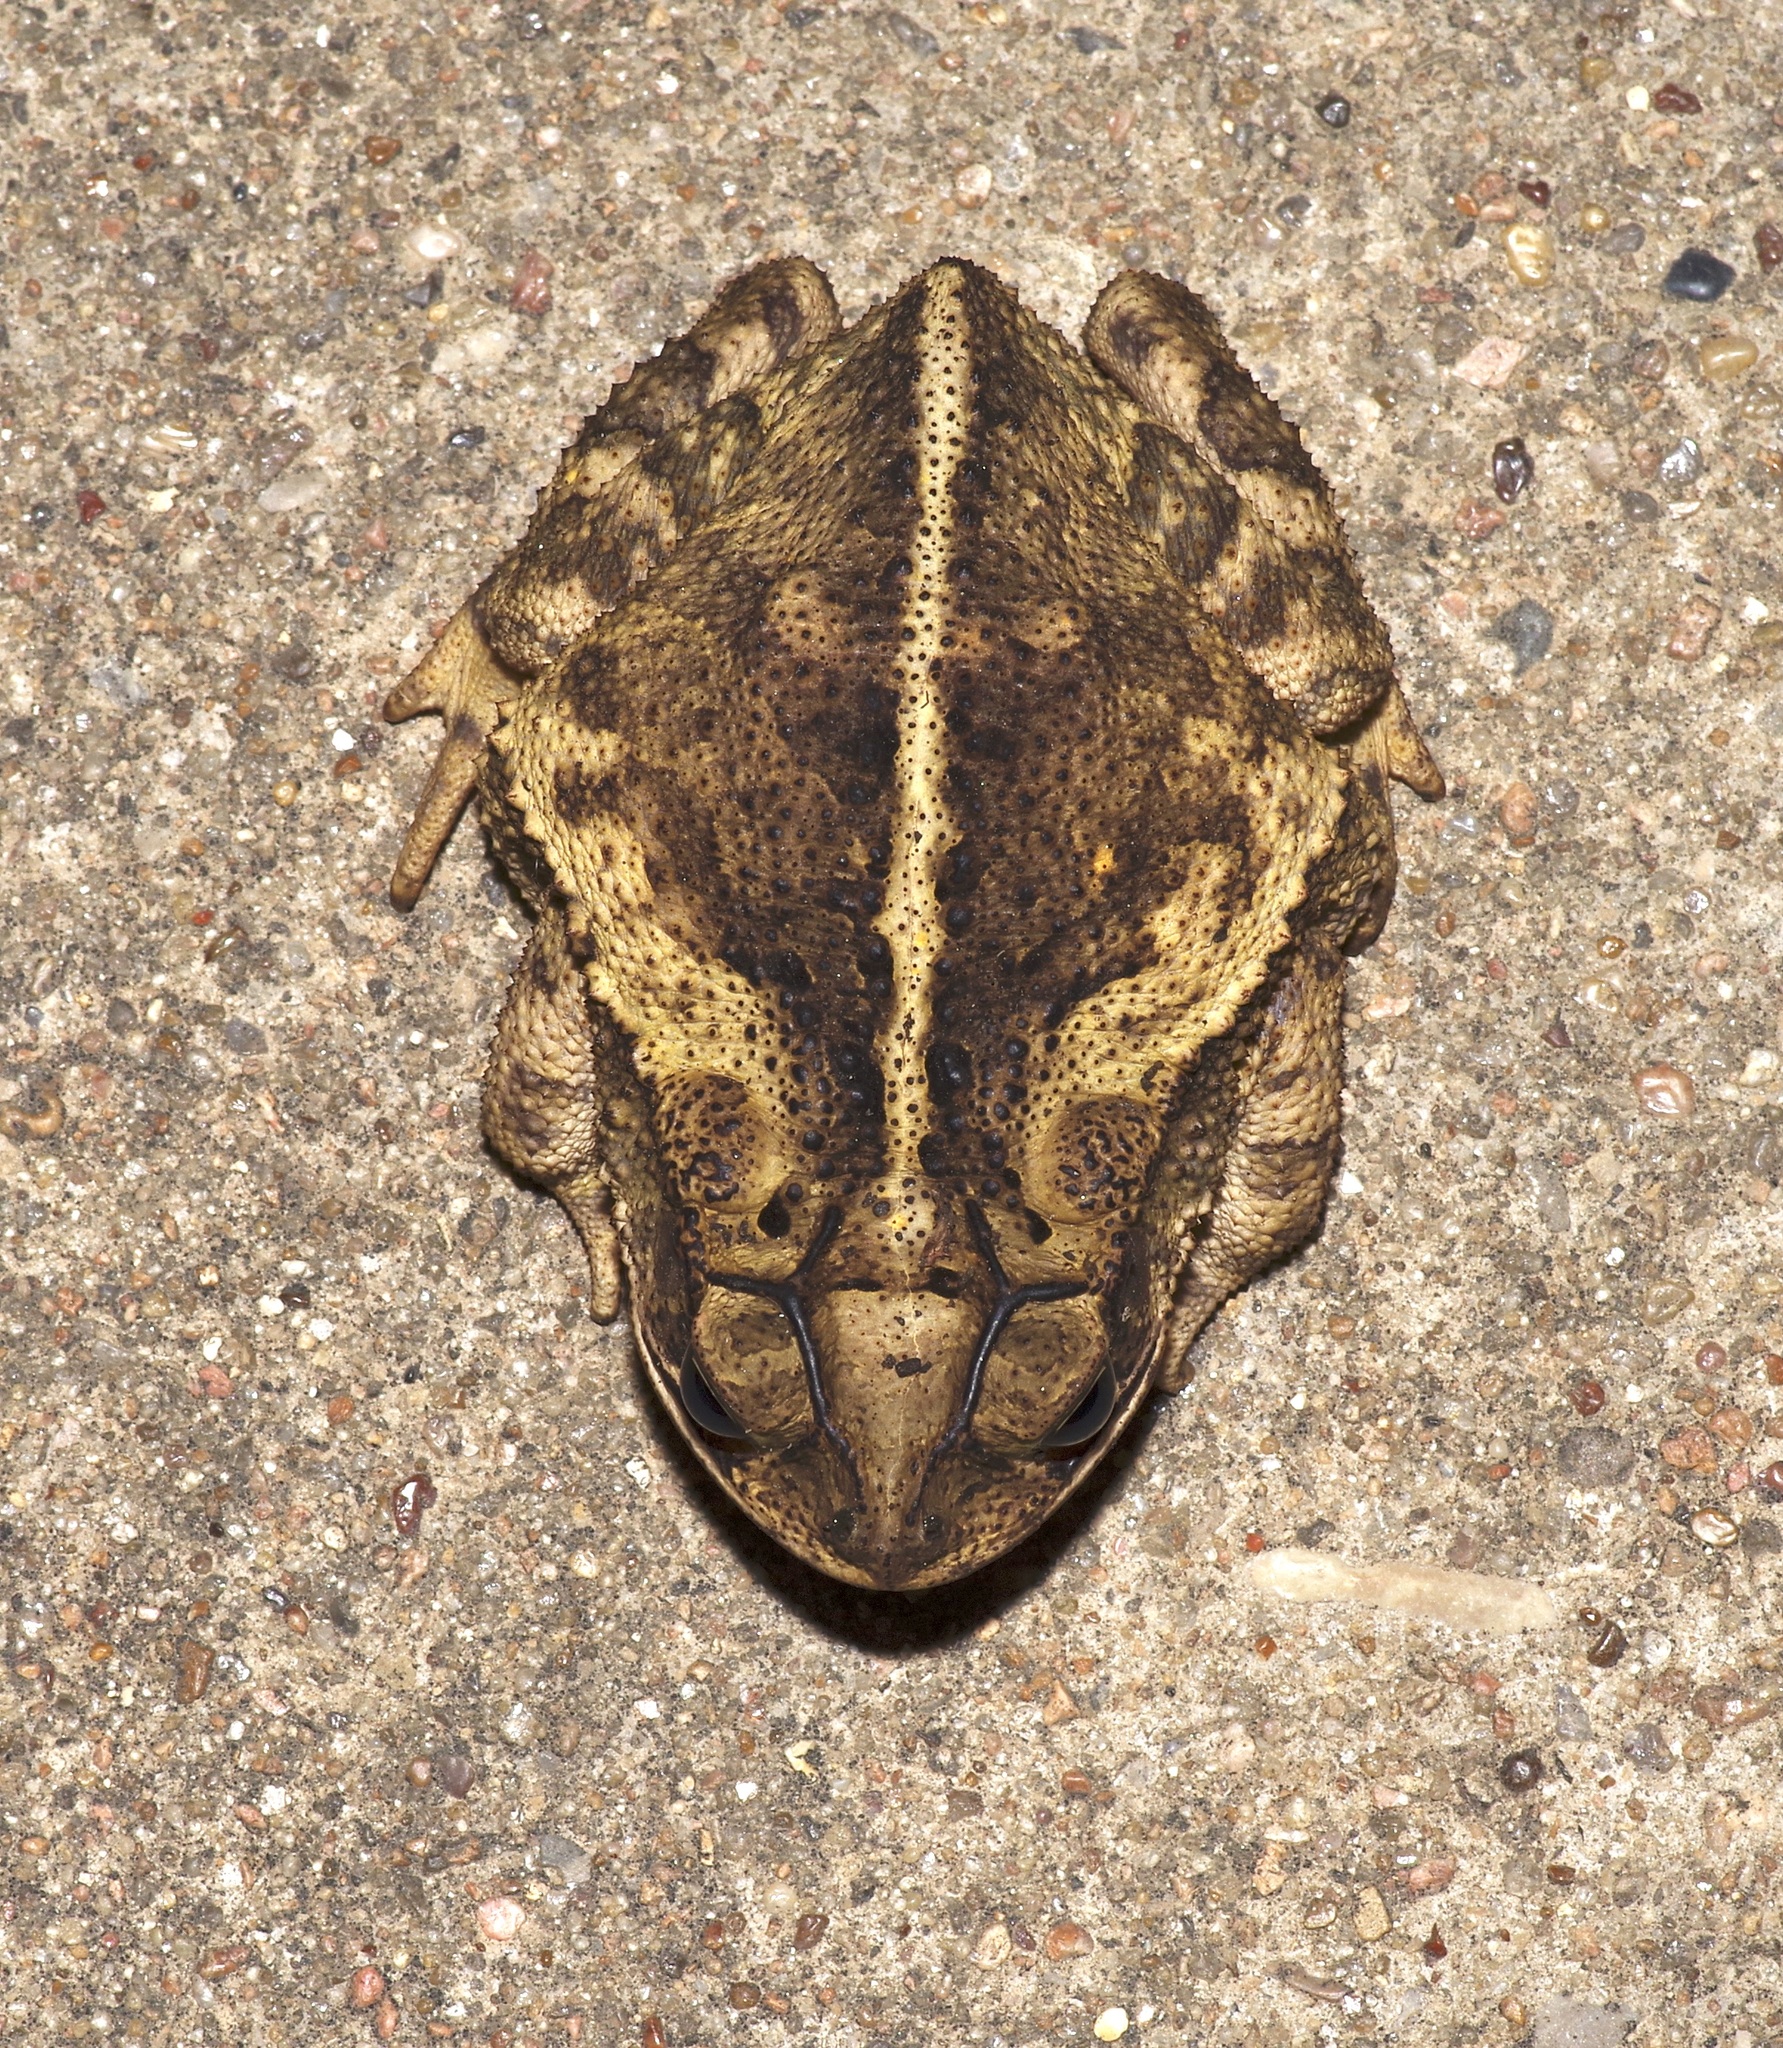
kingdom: Animalia
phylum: Chordata
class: Amphibia
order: Anura
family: Bufonidae
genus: Incilius
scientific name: Incilius nebulifer
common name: Gulf coast toad
